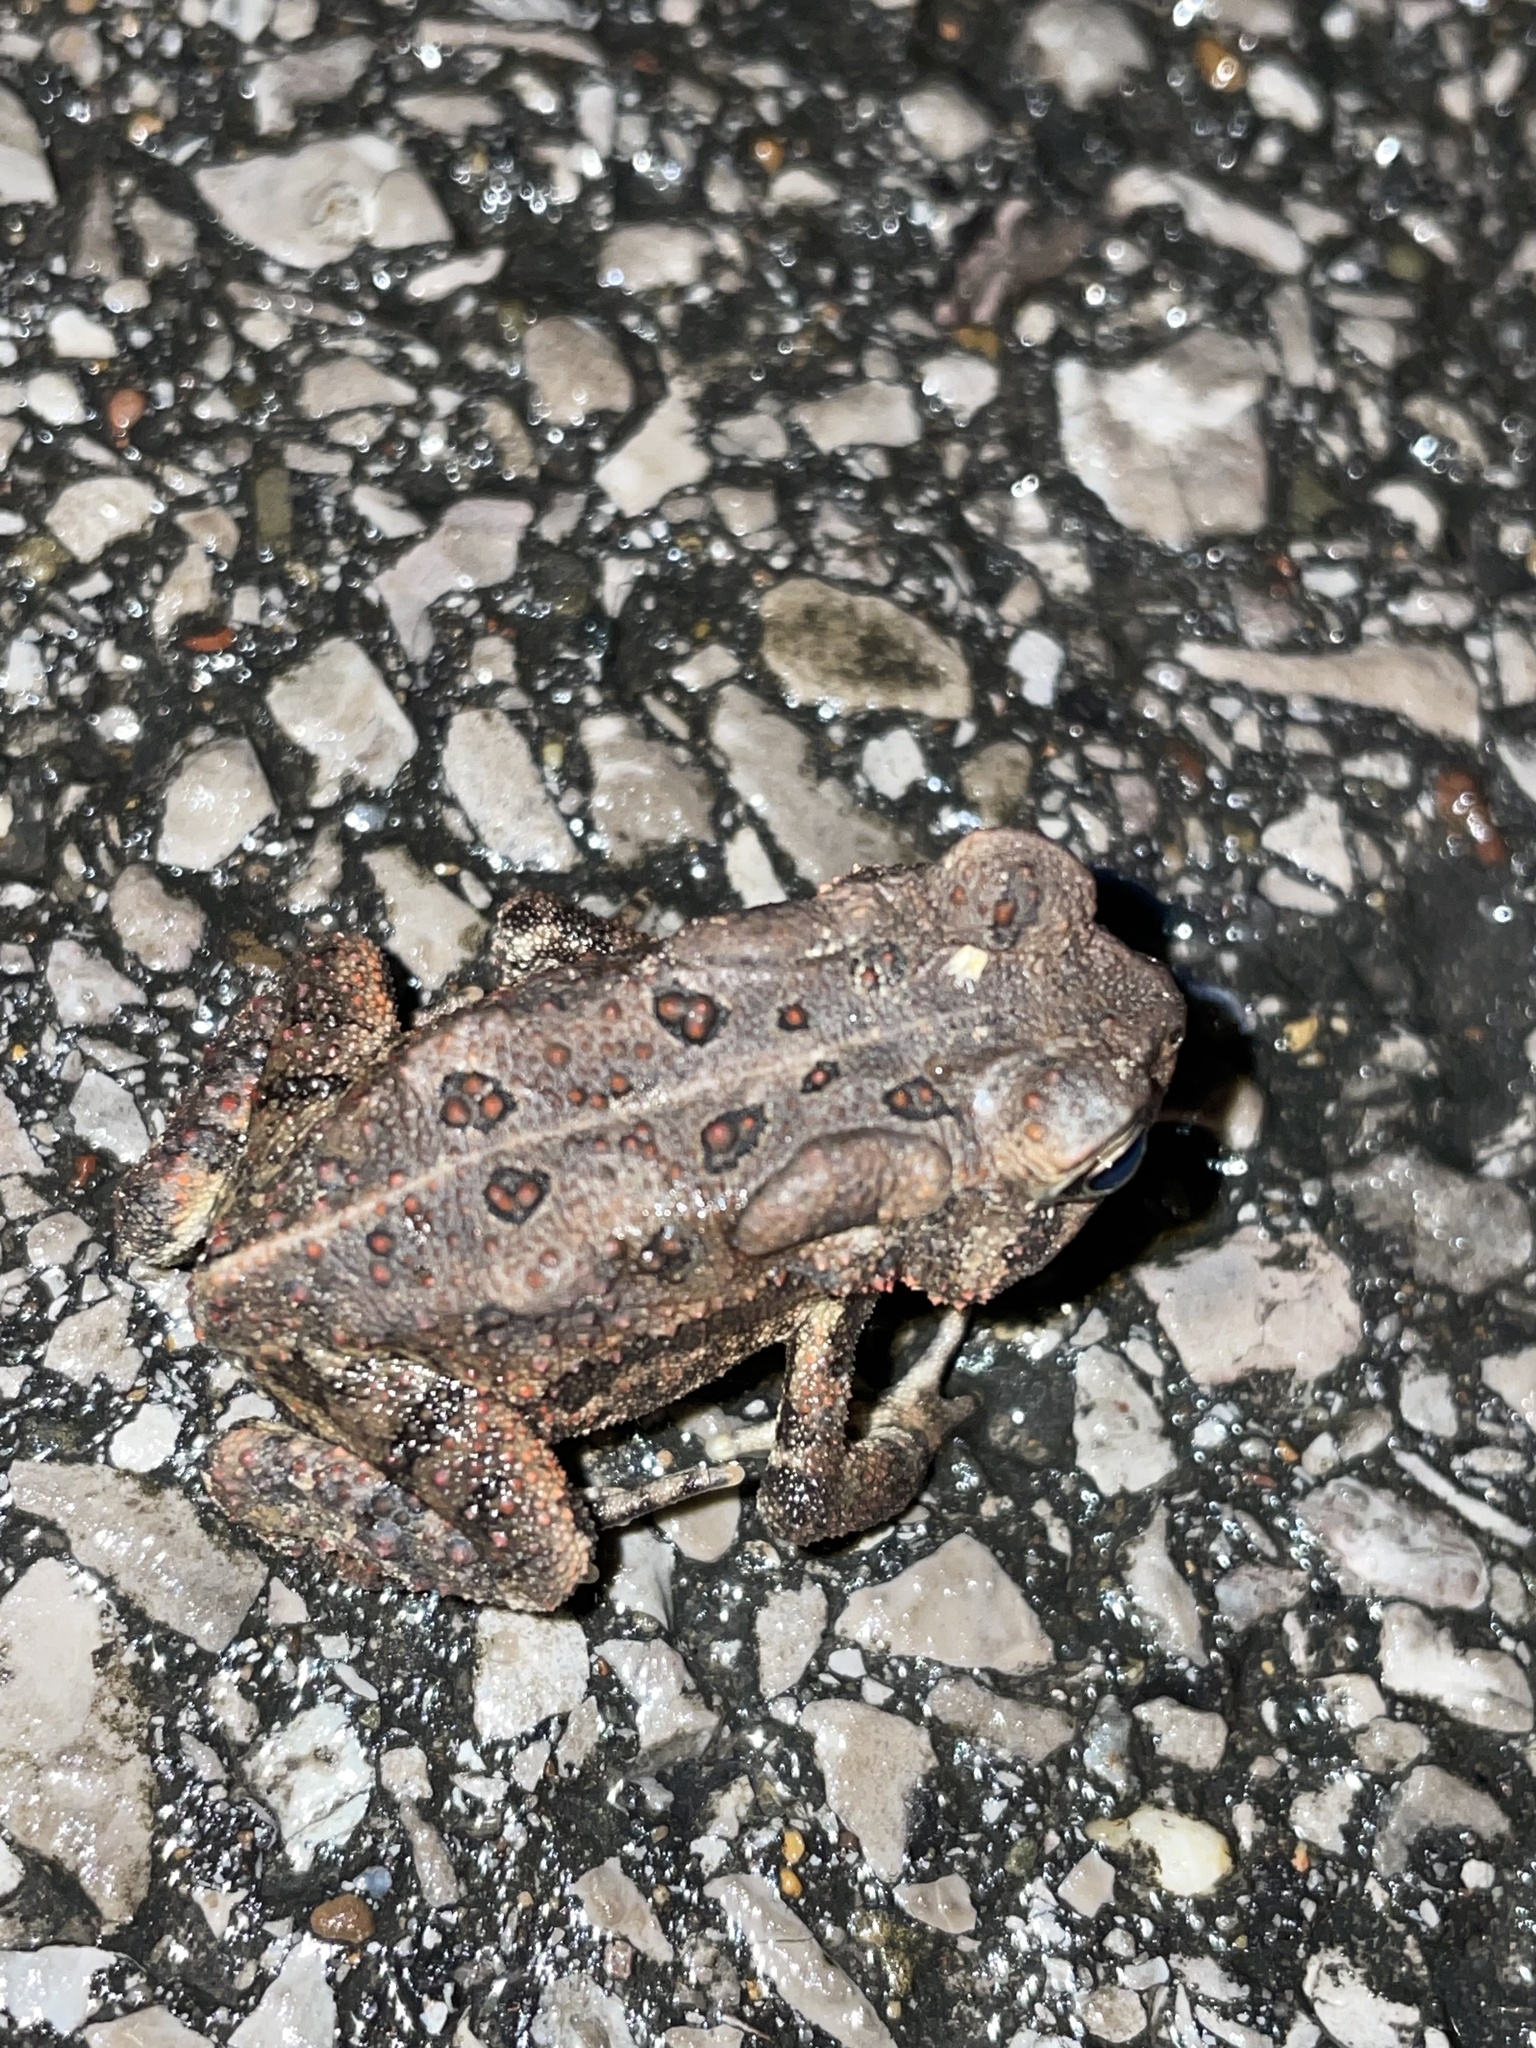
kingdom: Animalia
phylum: Chordata
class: Amphibia
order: Anura
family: Bufonidae
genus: Anaxyrus
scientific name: Anaxyrus americanus
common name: American toad
